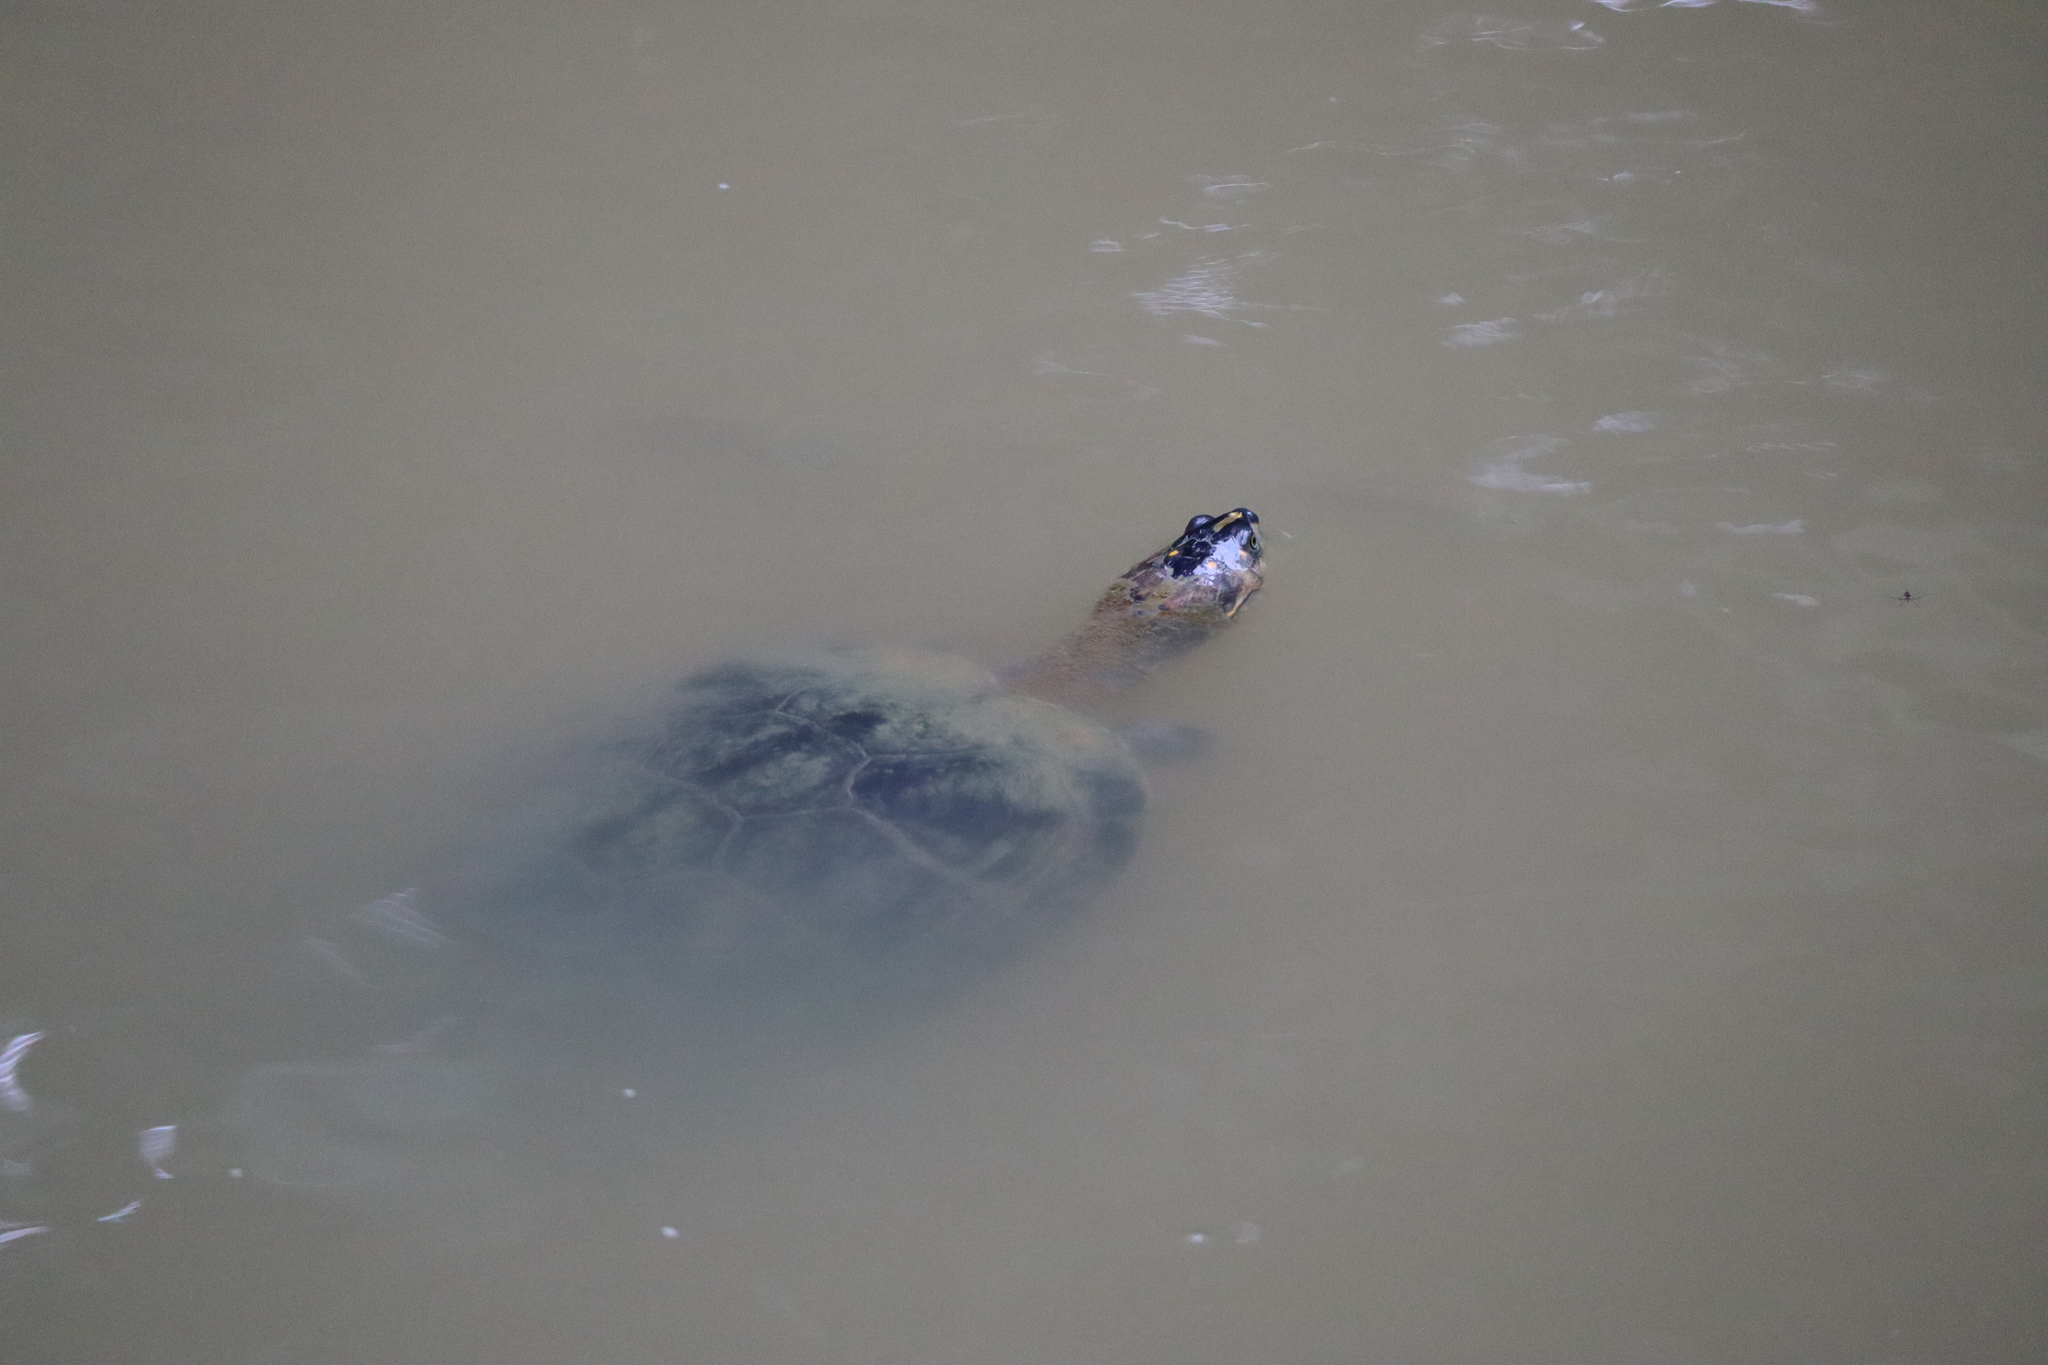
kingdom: Animalia
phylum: Chordata
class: Testudines
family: Podocnemididae
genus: Podocnemis
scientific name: Podocnemis unifilis
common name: Yellow-spotted amazon river turtle
